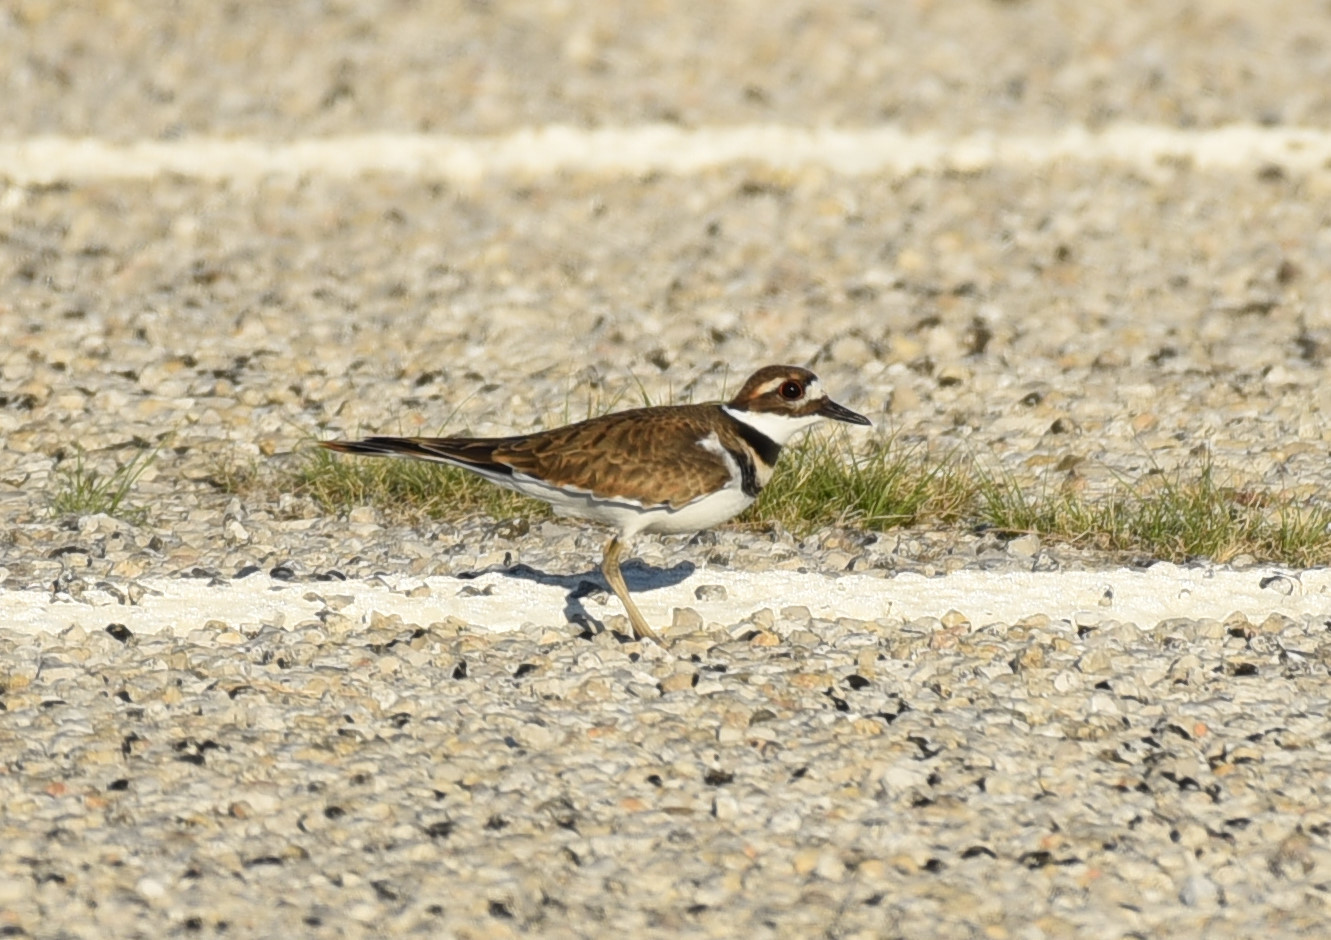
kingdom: Animalia
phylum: Chordata
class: Aves
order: Charadriiformes
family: Charadriidae
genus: Charadrius
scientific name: Charadrius vociferus
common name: Killdeer
